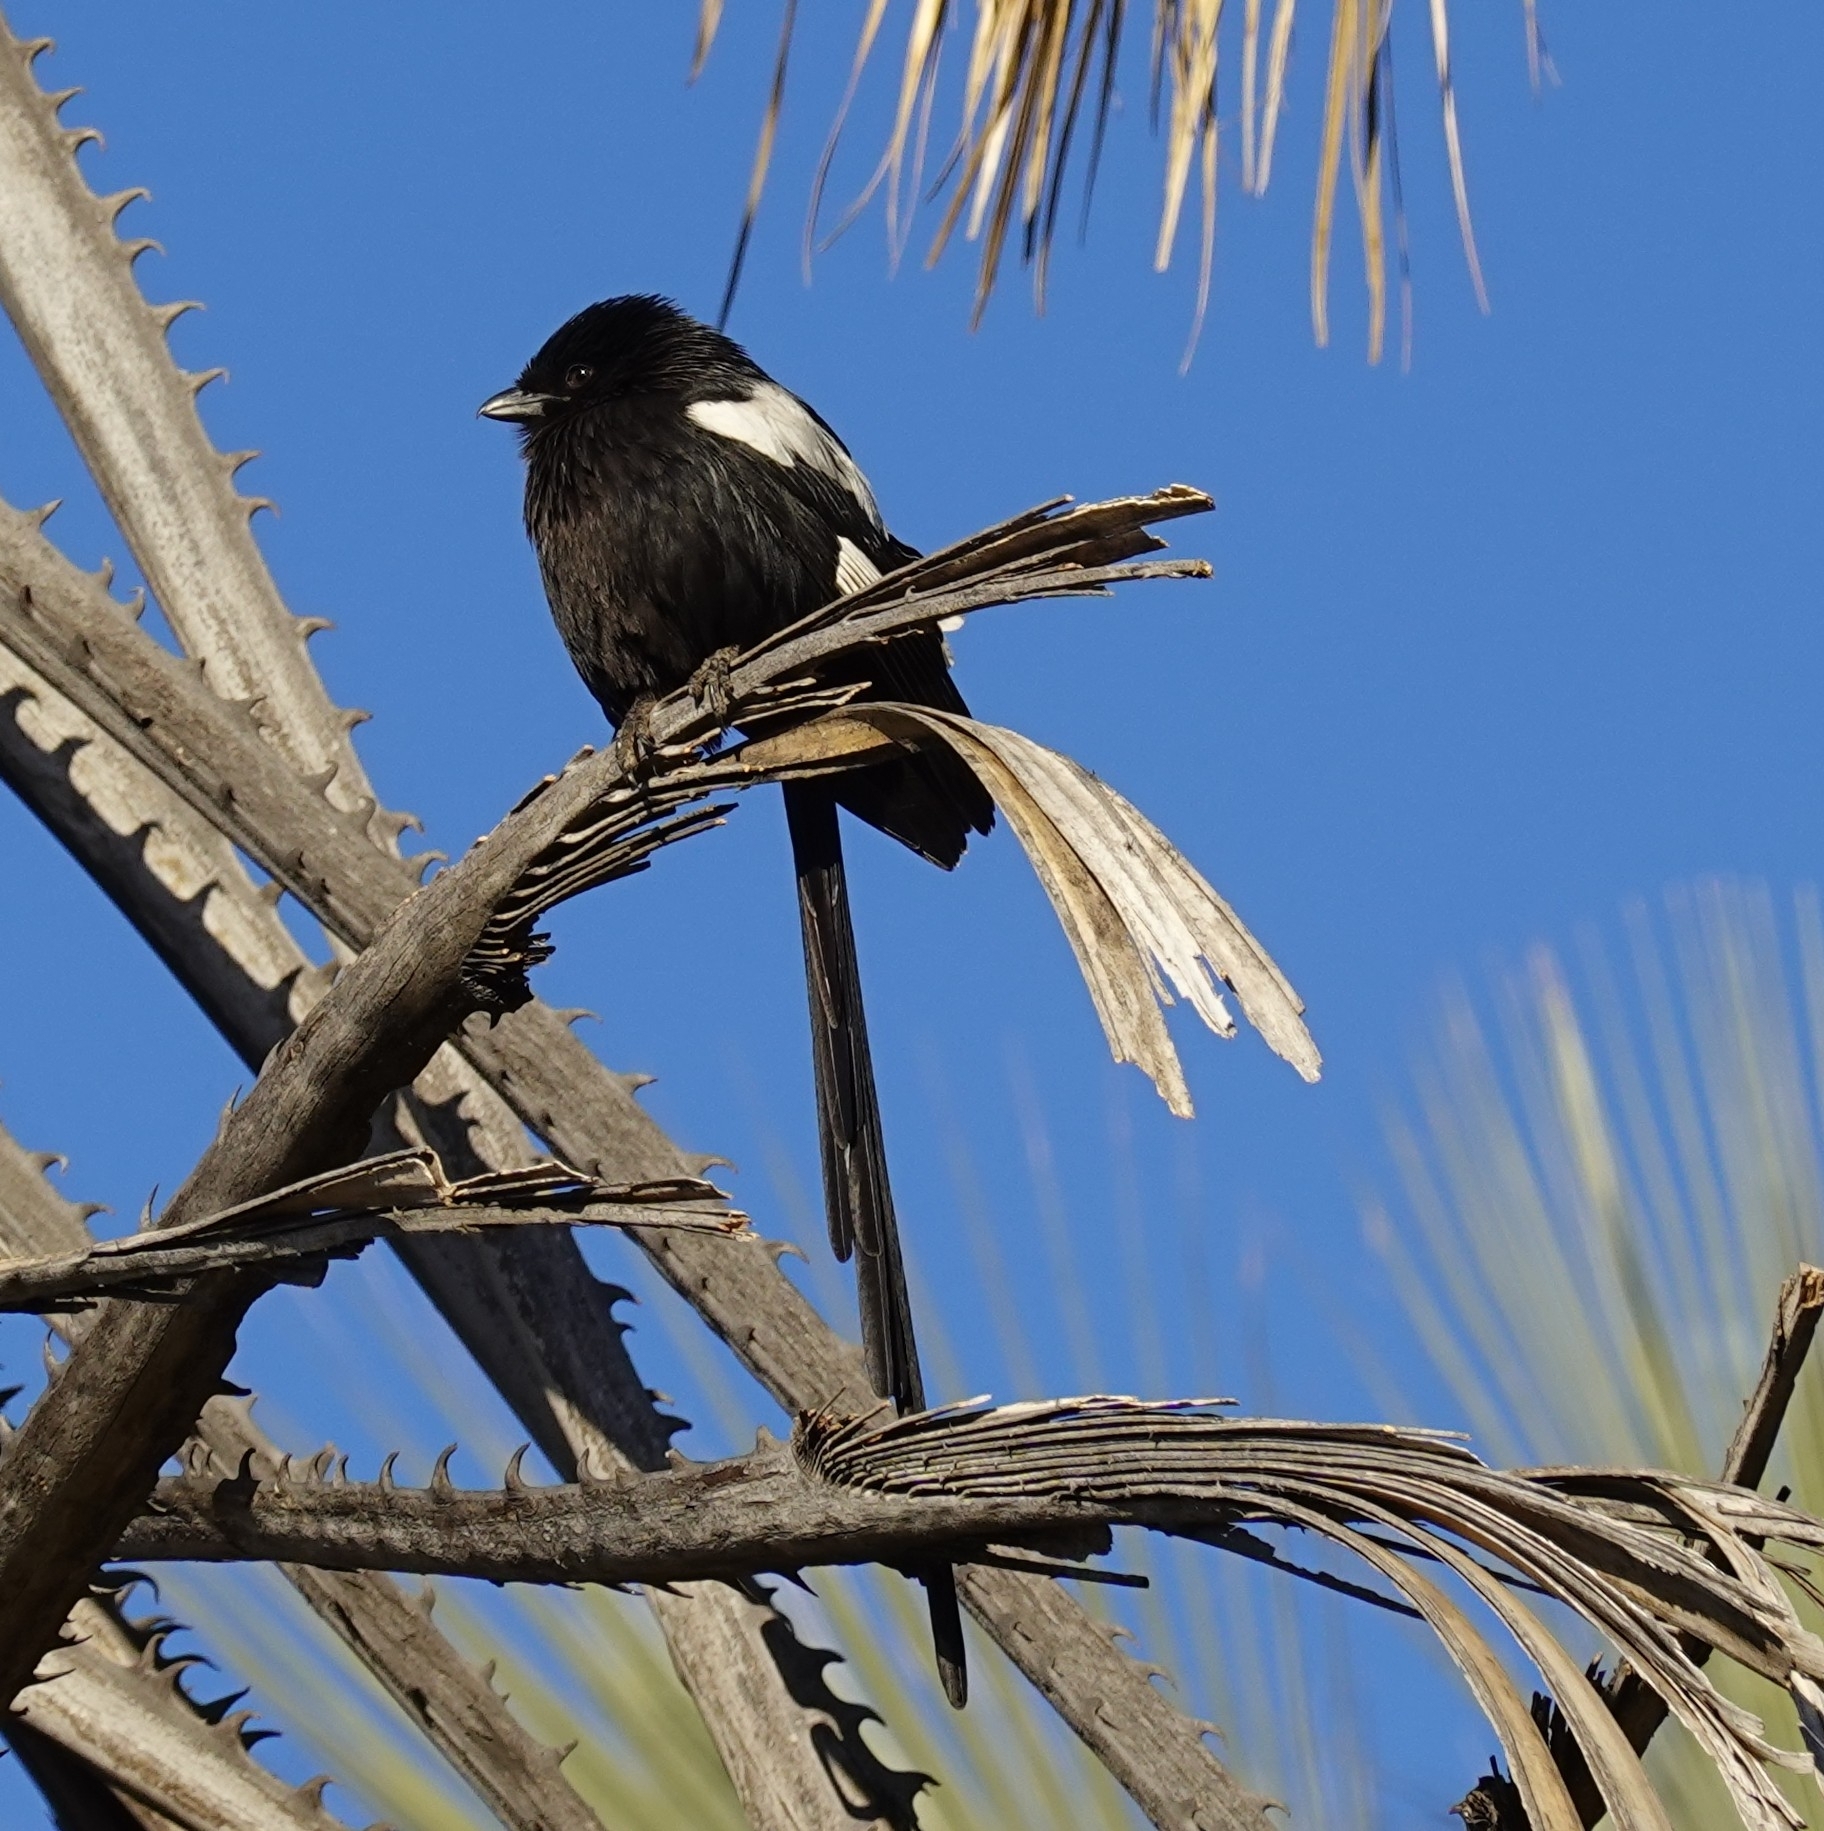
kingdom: Animalia
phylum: Chordata
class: Aves
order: Passeriformes
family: Laniidae
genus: Urolestes
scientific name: Urolestes melanoleucus
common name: Magpie shrike
